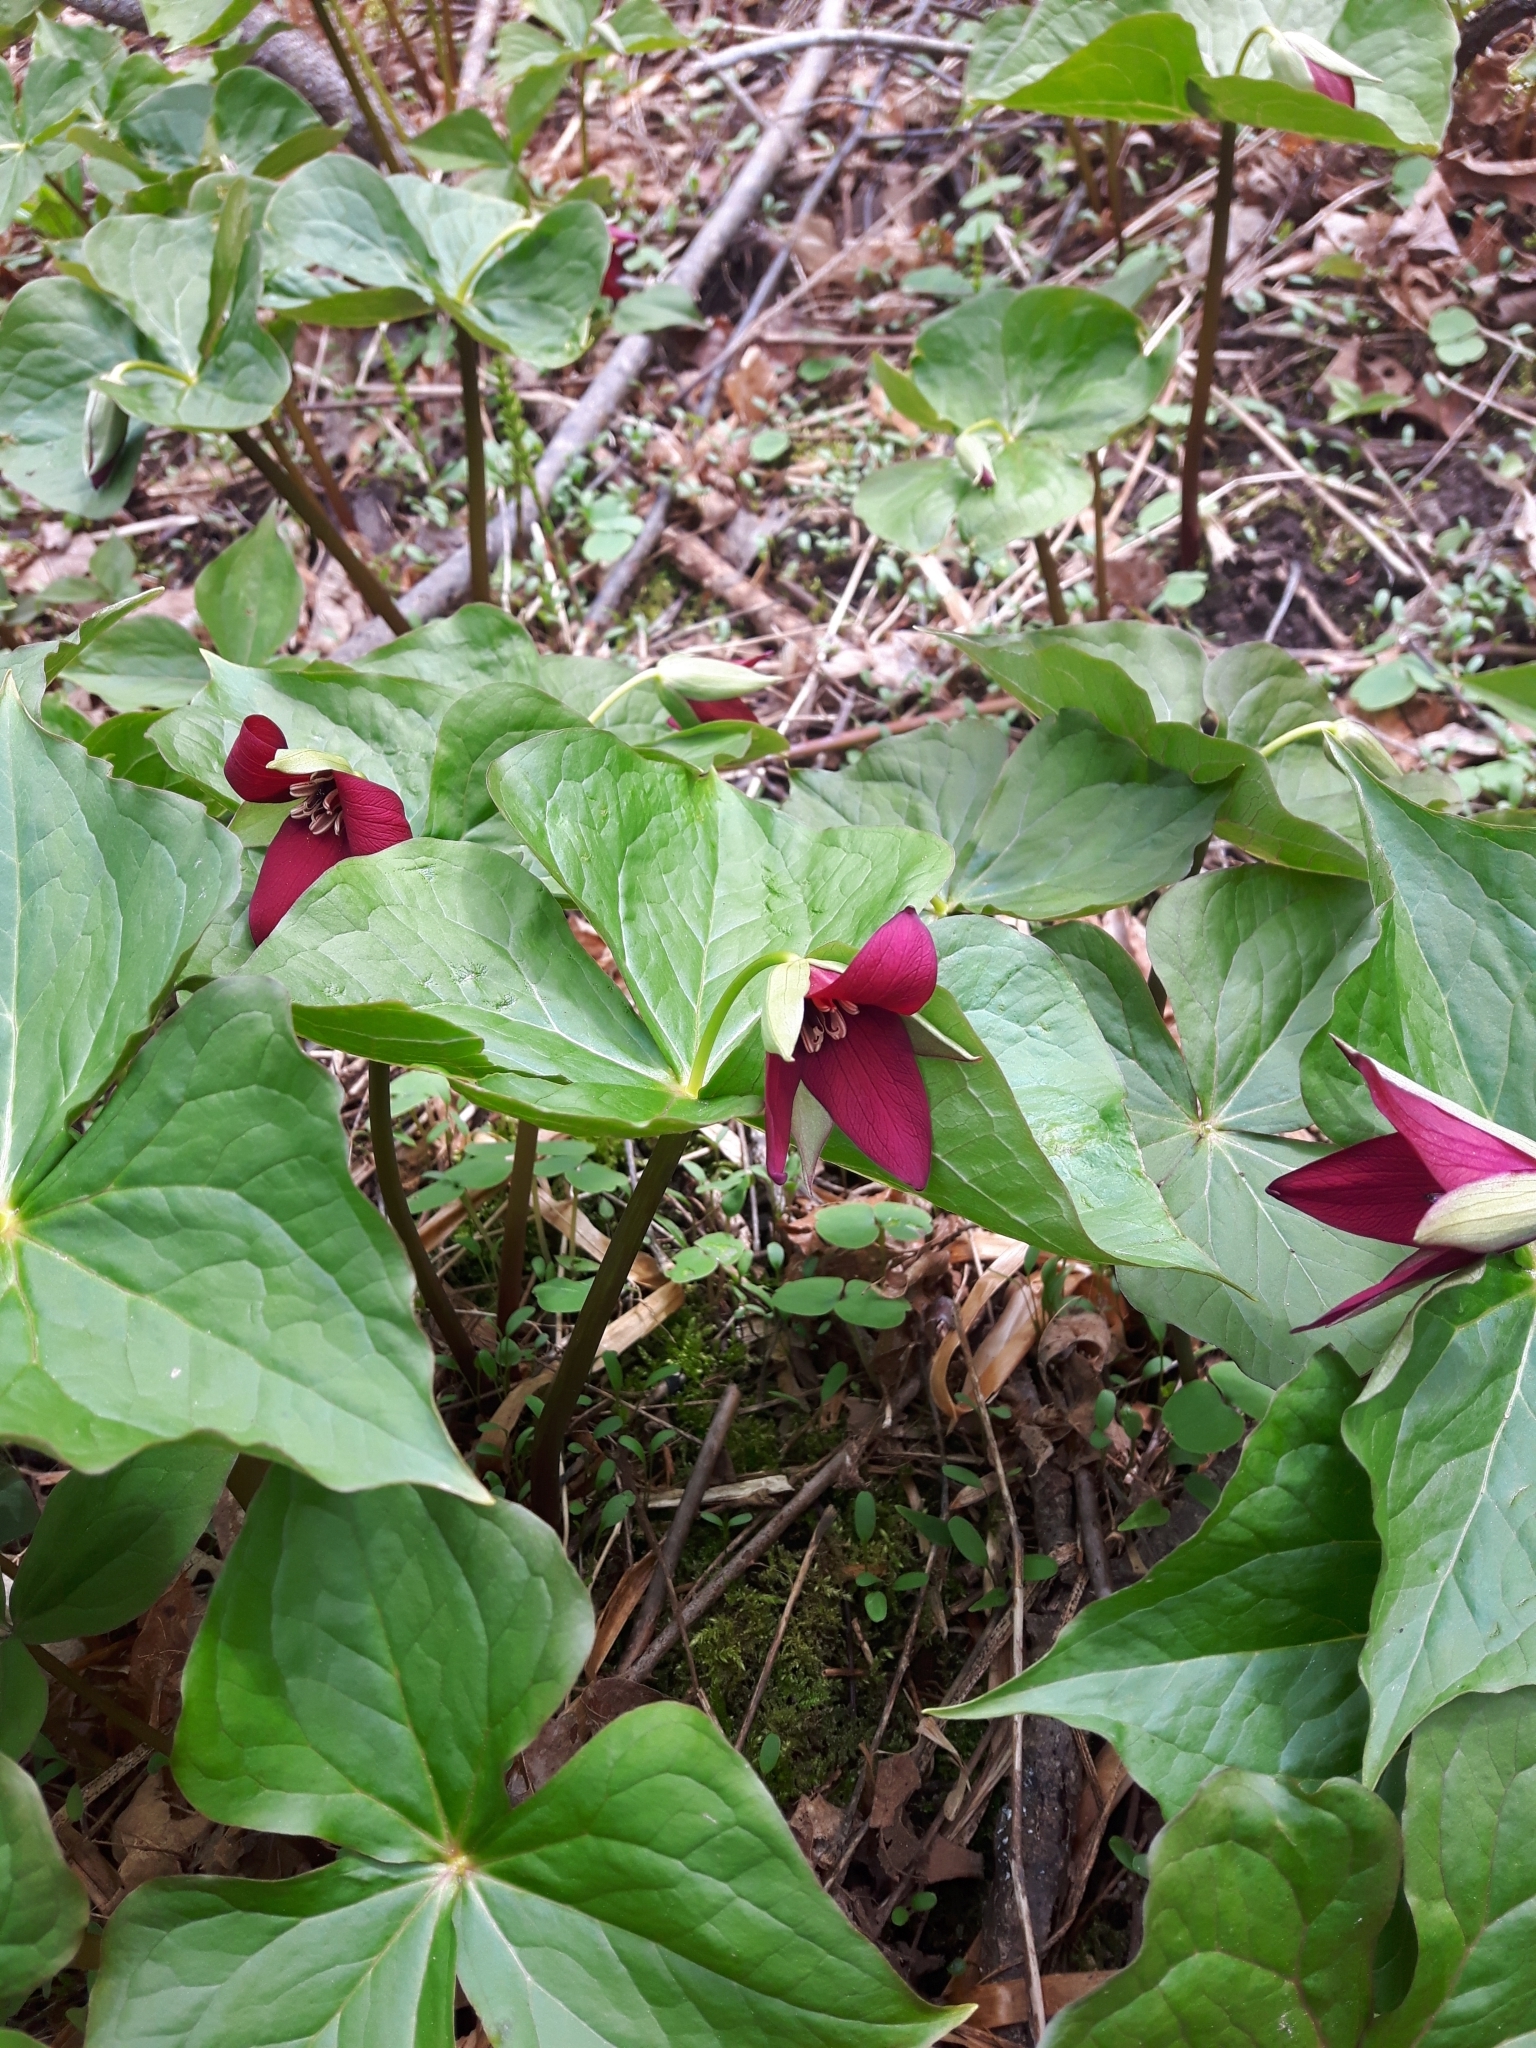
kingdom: Plantae
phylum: Tracheophyta
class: Liliopsida
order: Liliales
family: Melanthiaceae
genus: Trillium
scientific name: Trillium erectum
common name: Purple trillium
